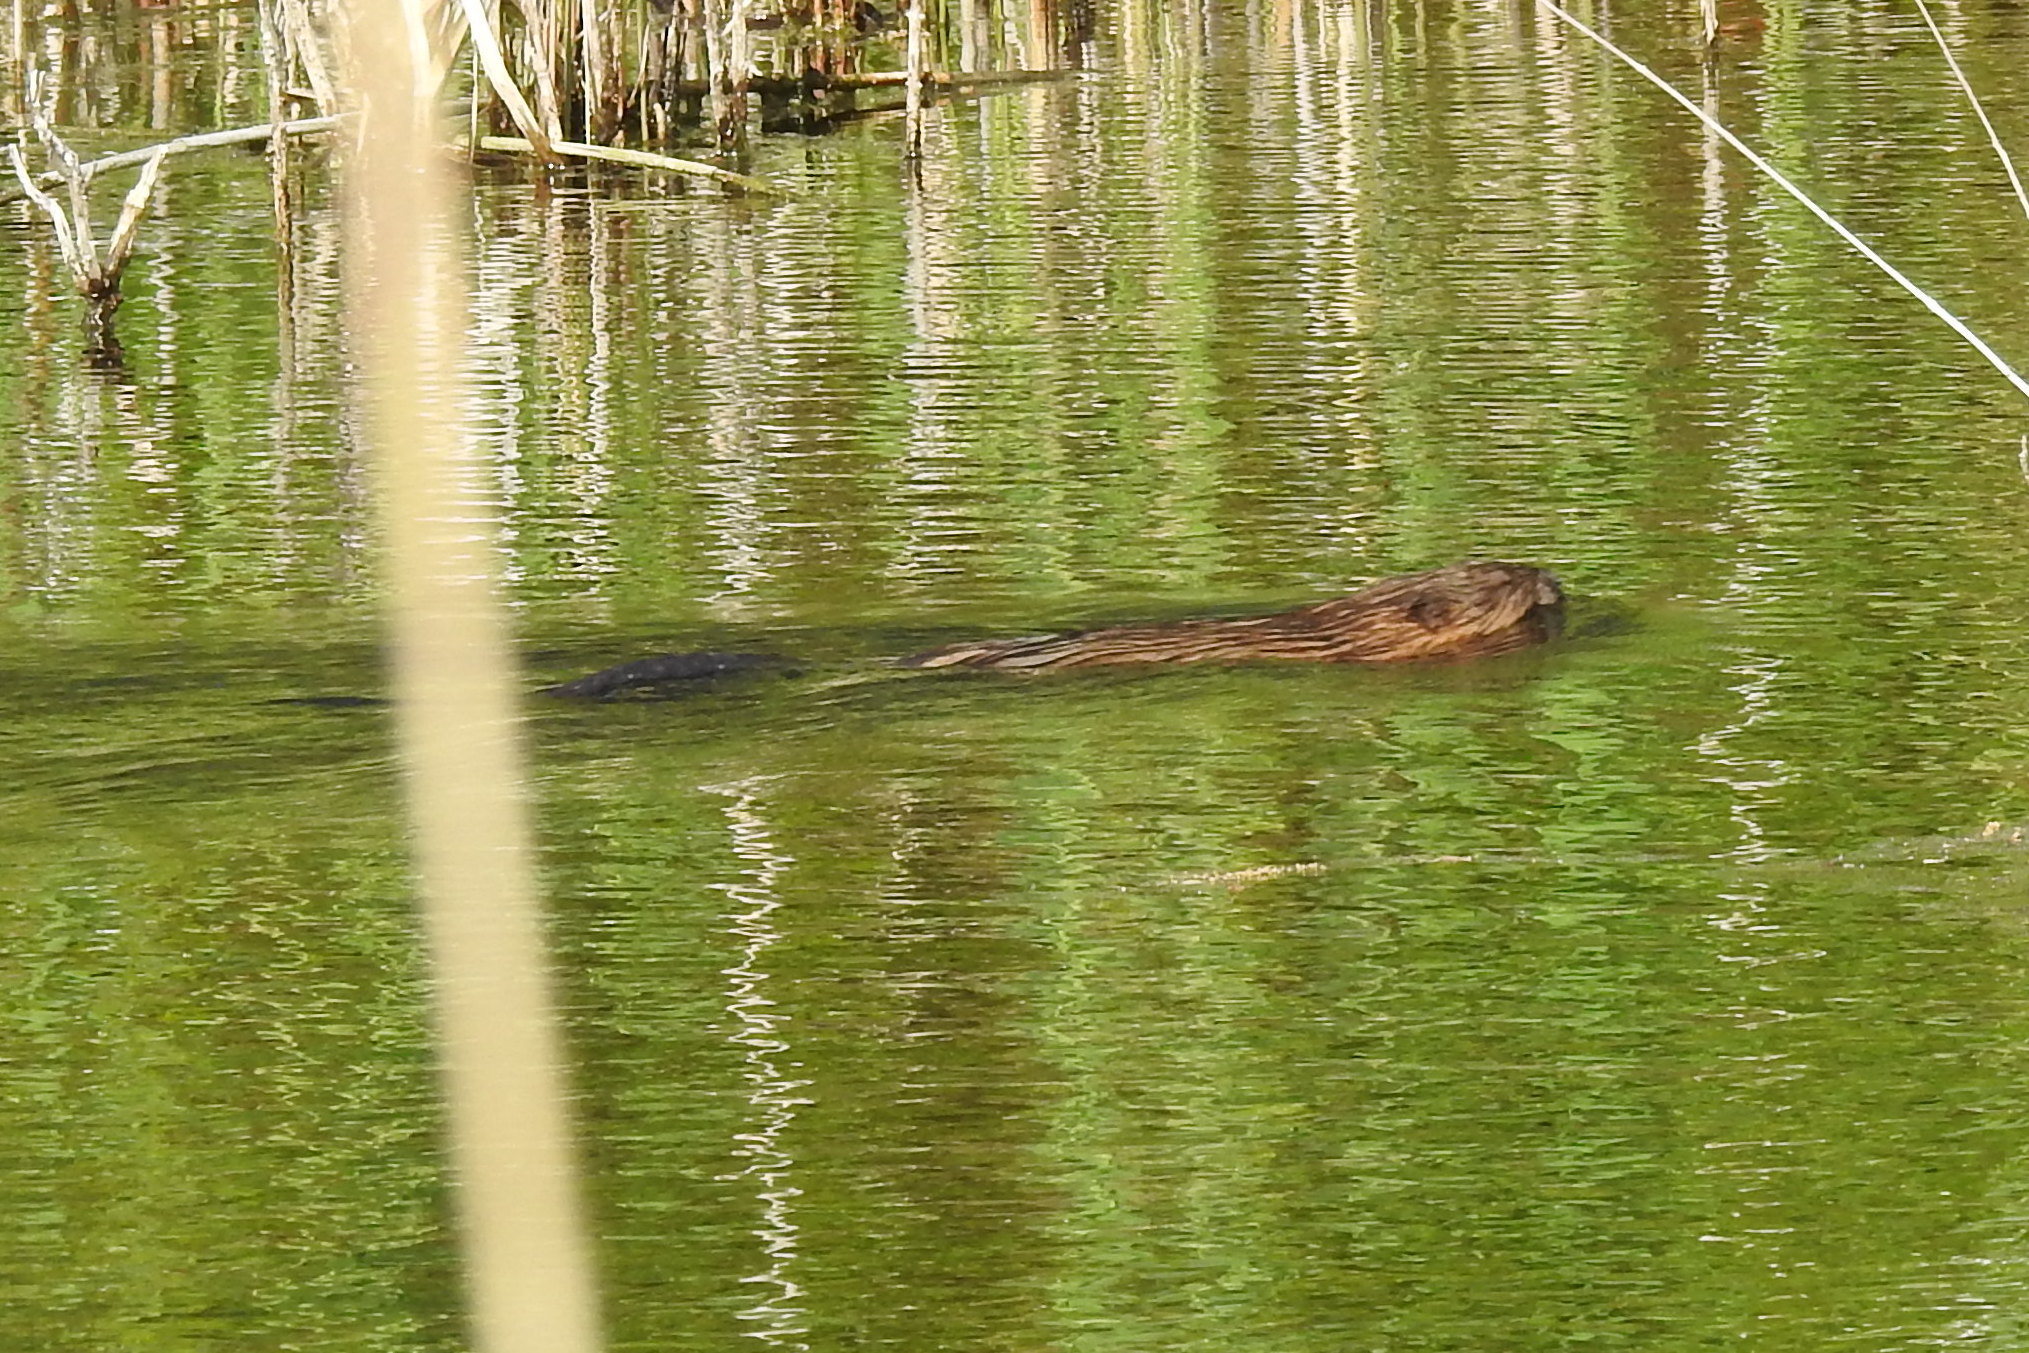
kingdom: Animalia
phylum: Chordata
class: Mammalia
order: Rodentia
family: Cricetidae
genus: Ondatra
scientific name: Ondatra zibethicus
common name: Muskrat
